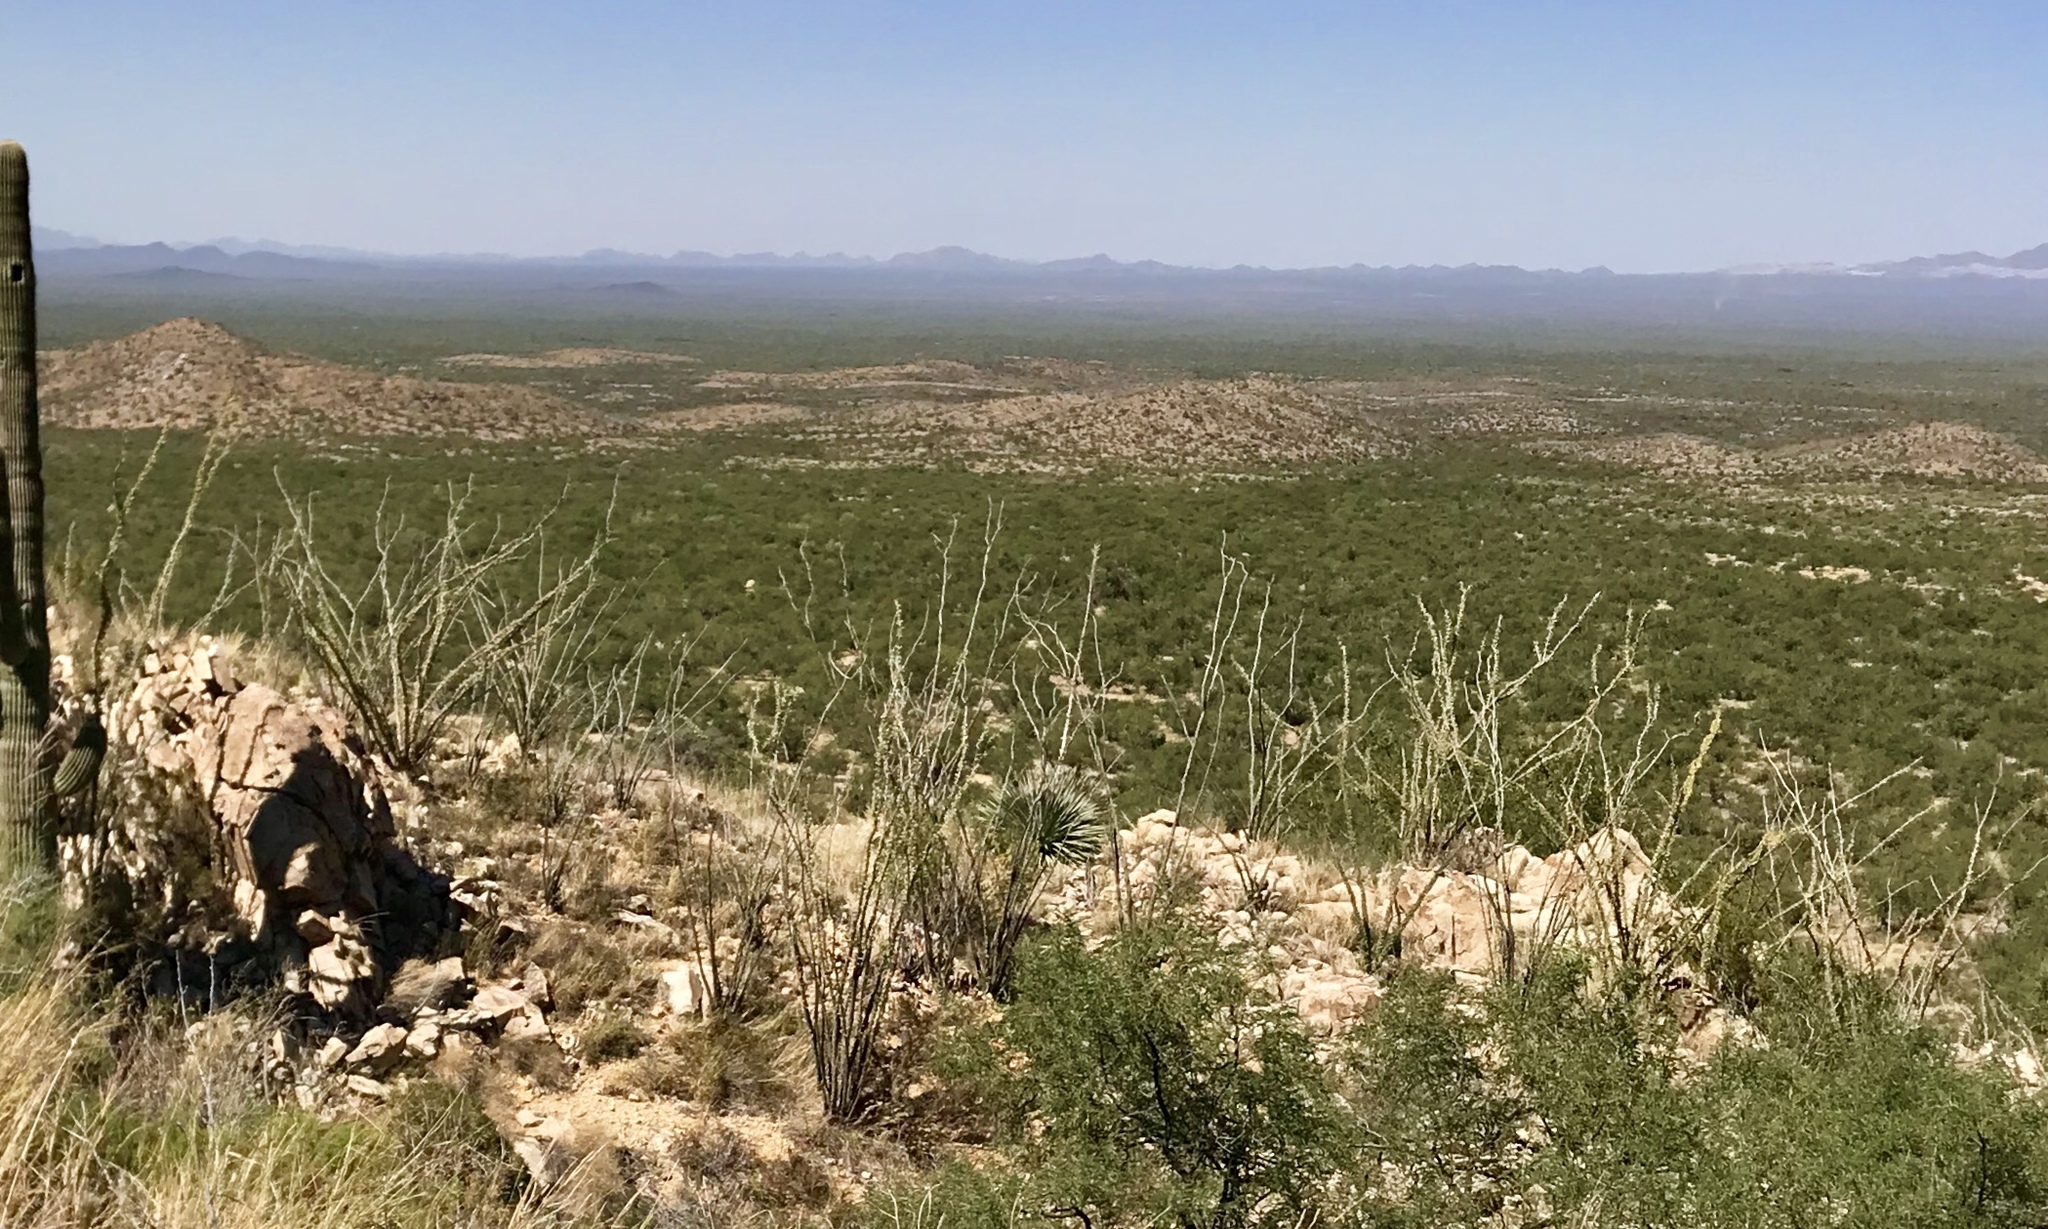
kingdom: Plantae
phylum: Tracheophyta
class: Magnoliopsida
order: Ericales
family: Fouquieriaceae
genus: Fouquieria
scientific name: Fouquieria splendens
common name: Vine-cactus
